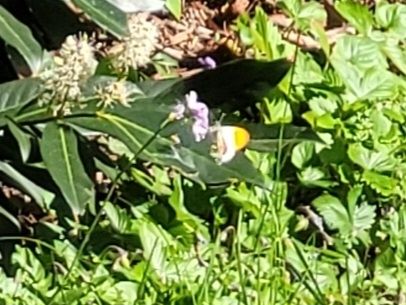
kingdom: Animalia
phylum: Arthropoda
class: Insecta
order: Lepidoptera
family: Pieridae
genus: Anthocharis
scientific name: Anthocharis cardamines
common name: Orange-tip
